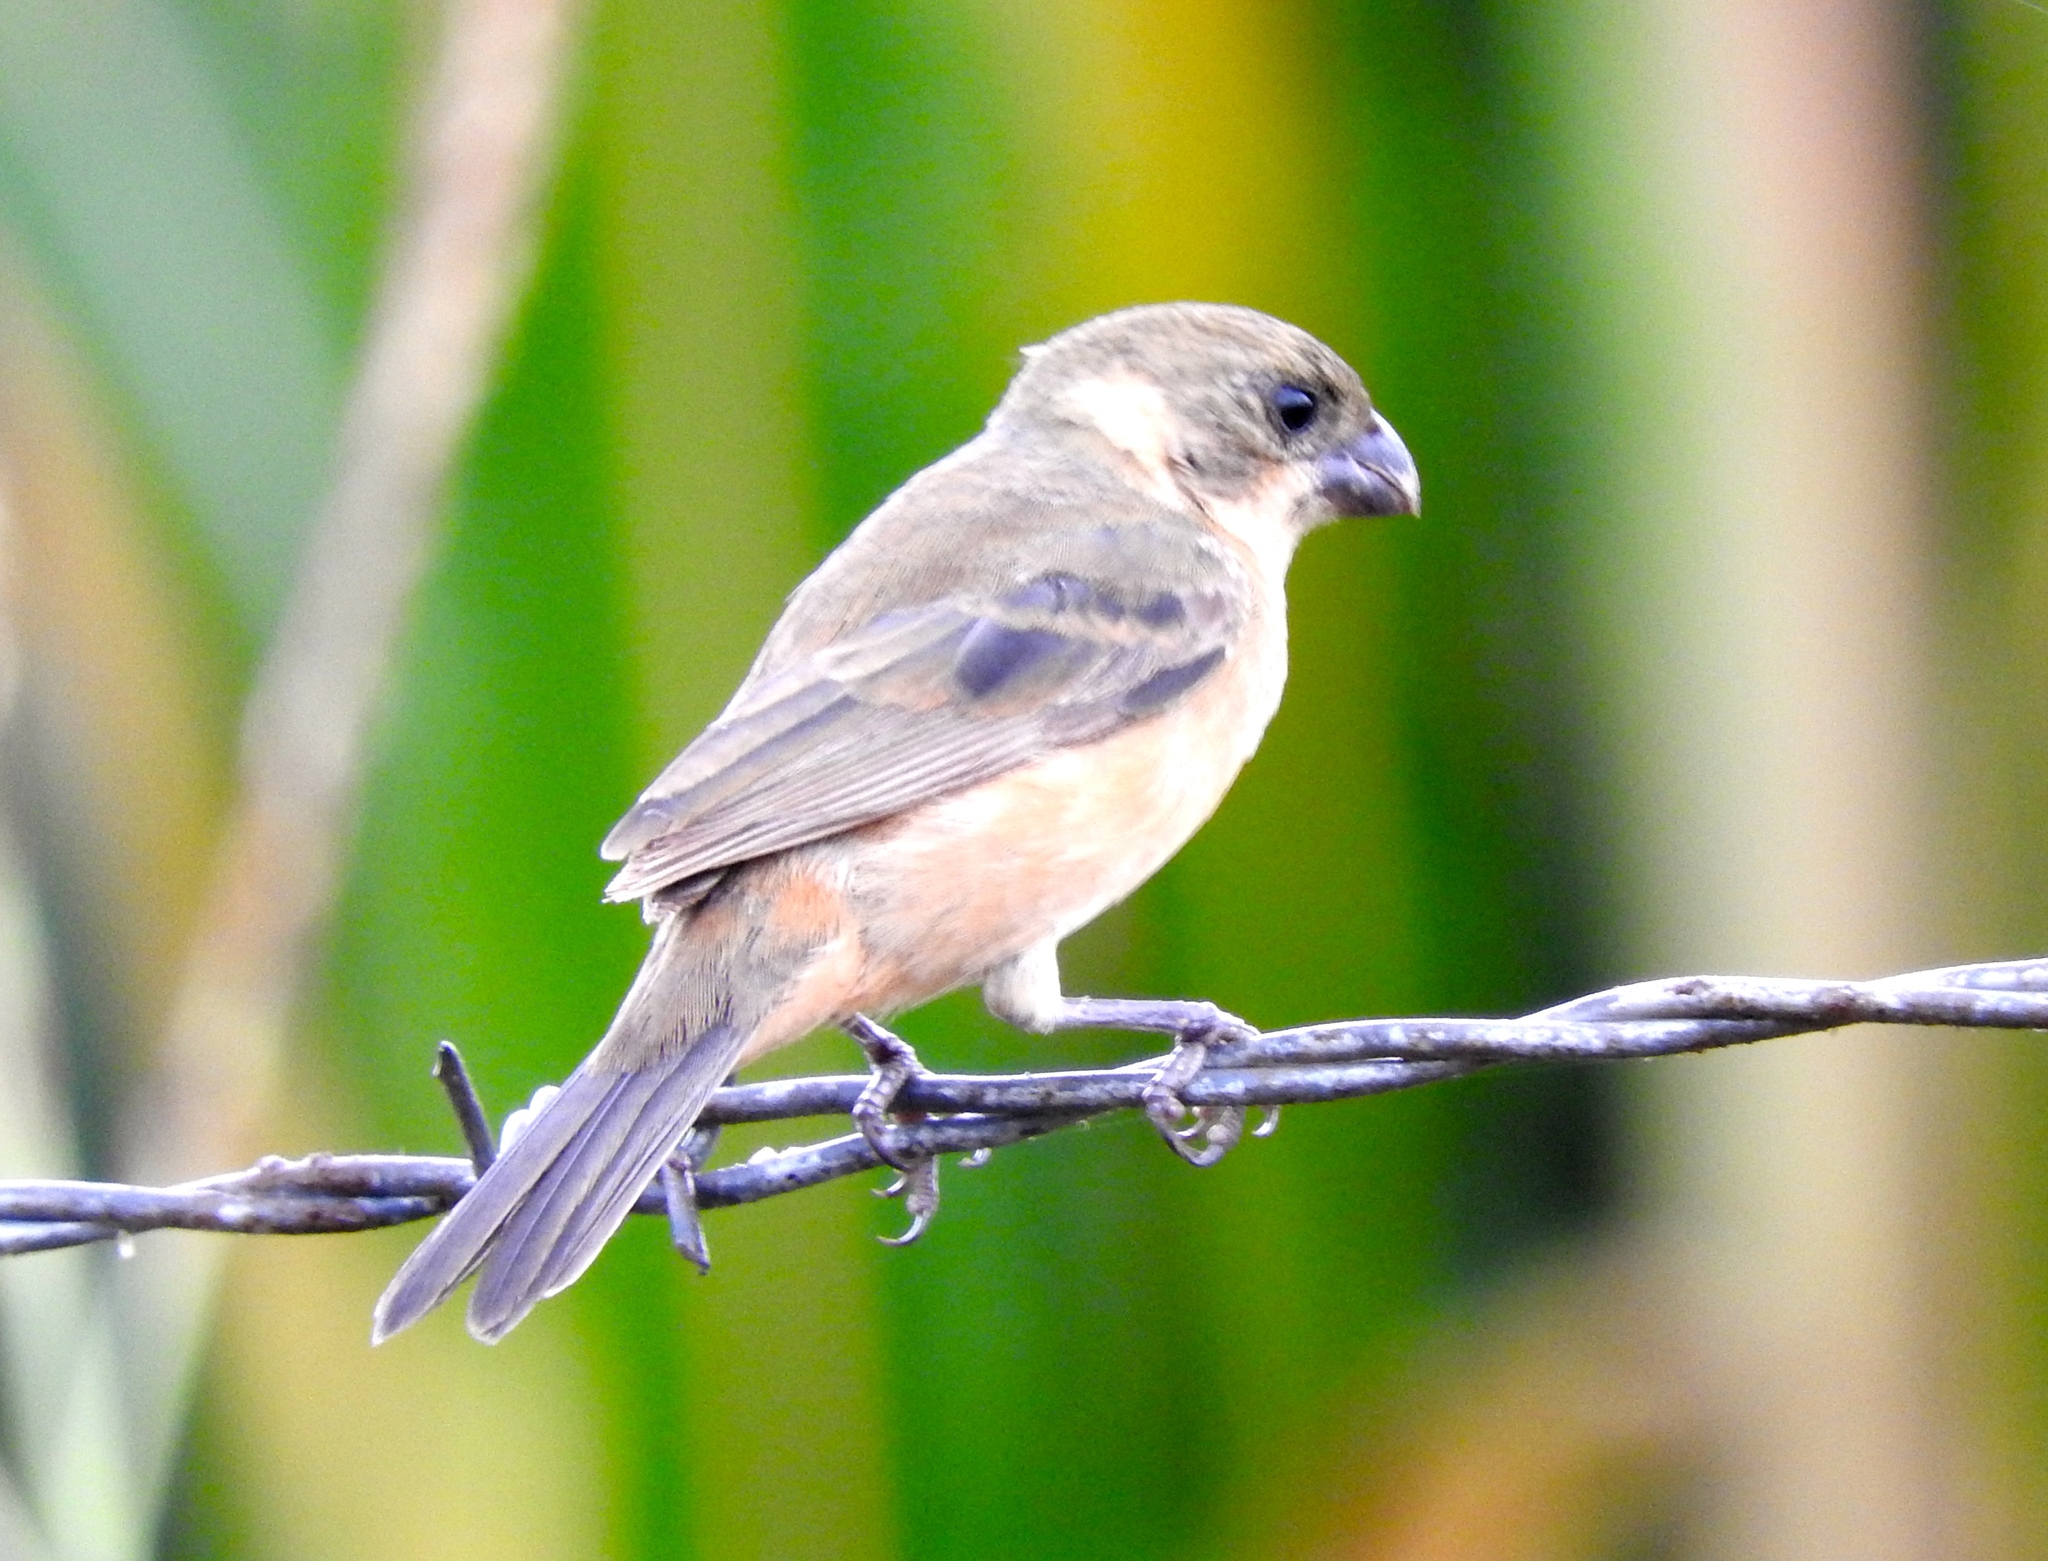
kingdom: Animalia
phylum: Chordata
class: Aves
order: Passeriformes
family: Thraupidae
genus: Sporophila
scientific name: Sporophila torqueola
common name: White-collared seedeater
